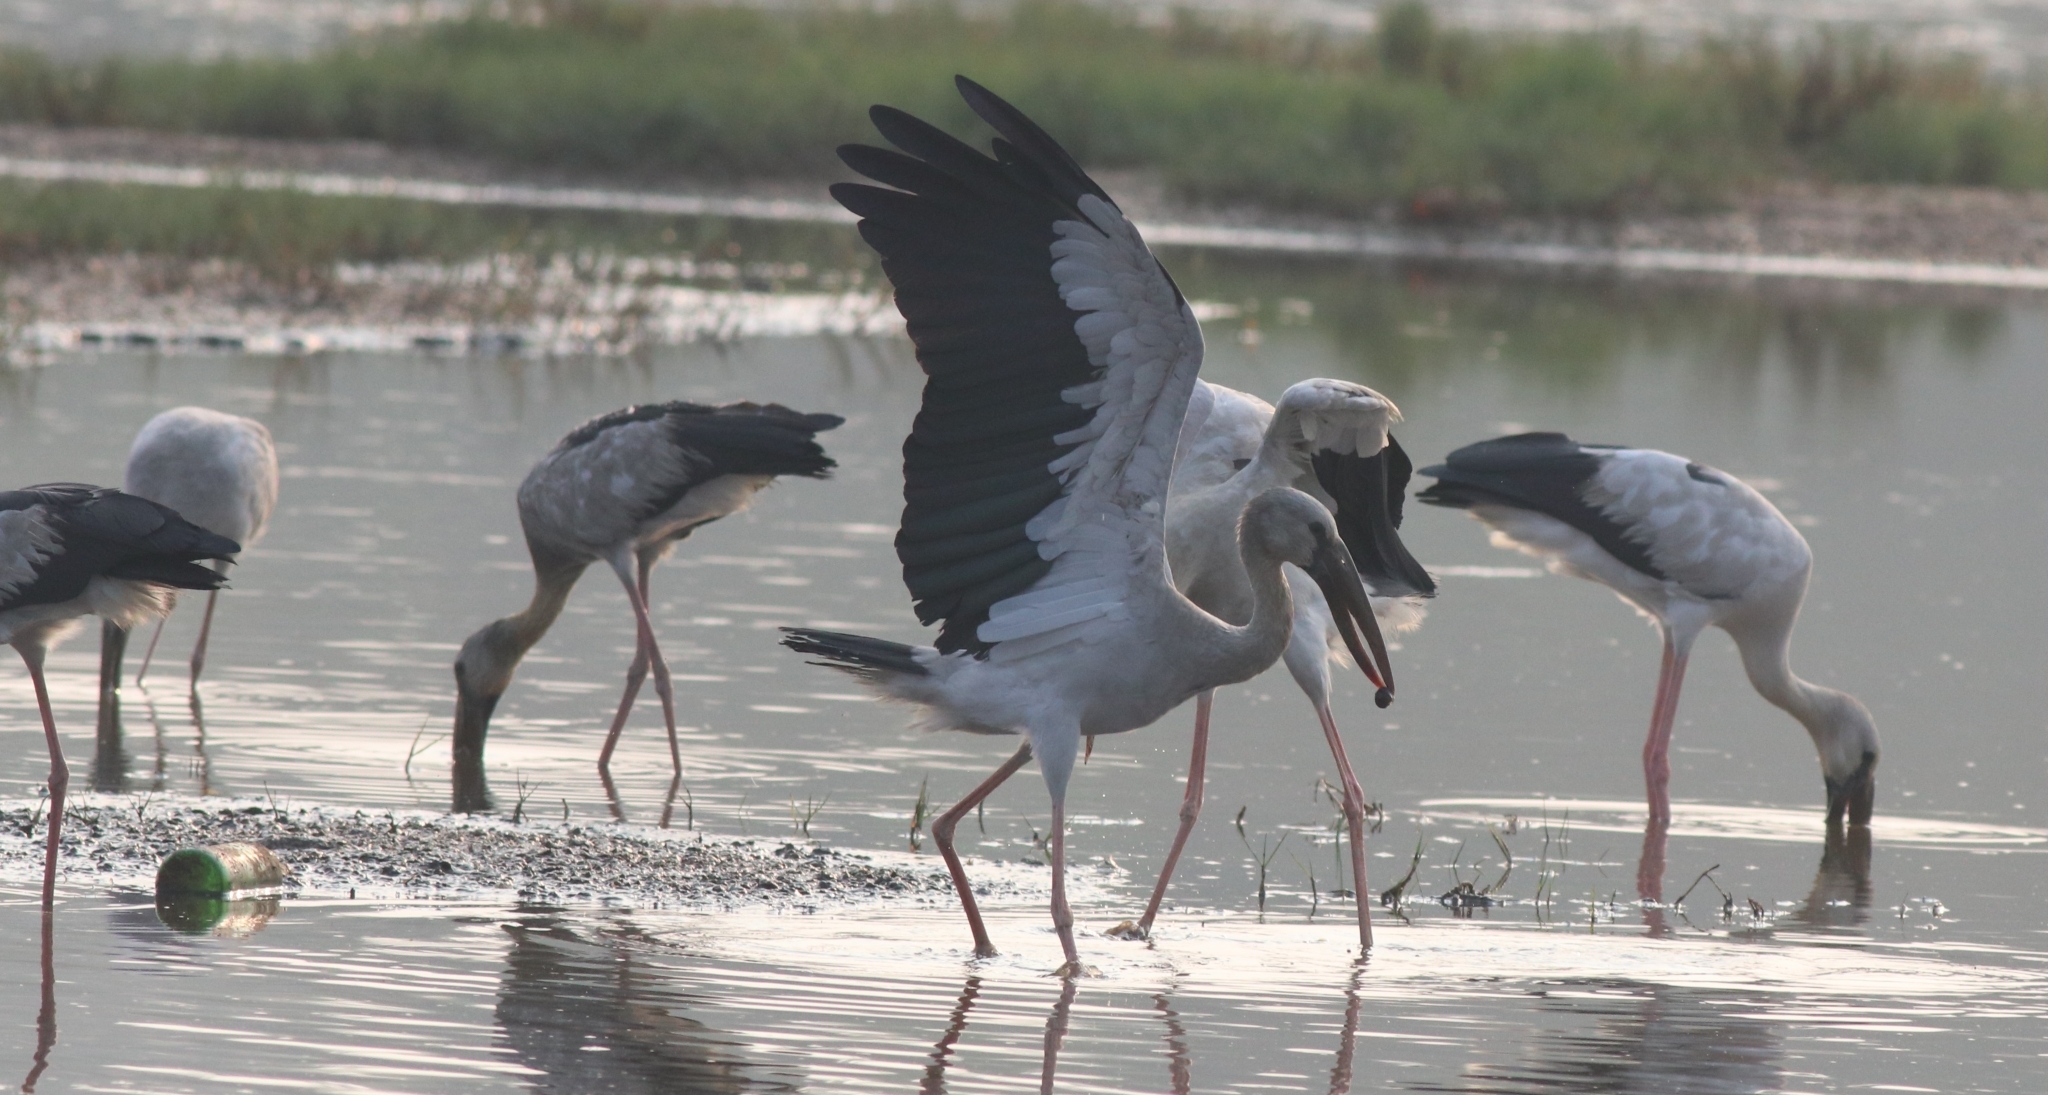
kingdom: Animalia
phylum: Chordata
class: Aves
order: Ciconiiformes
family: Ciconiidae
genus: Anastomus
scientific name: Anastomus oscitans
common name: Asian openbill
